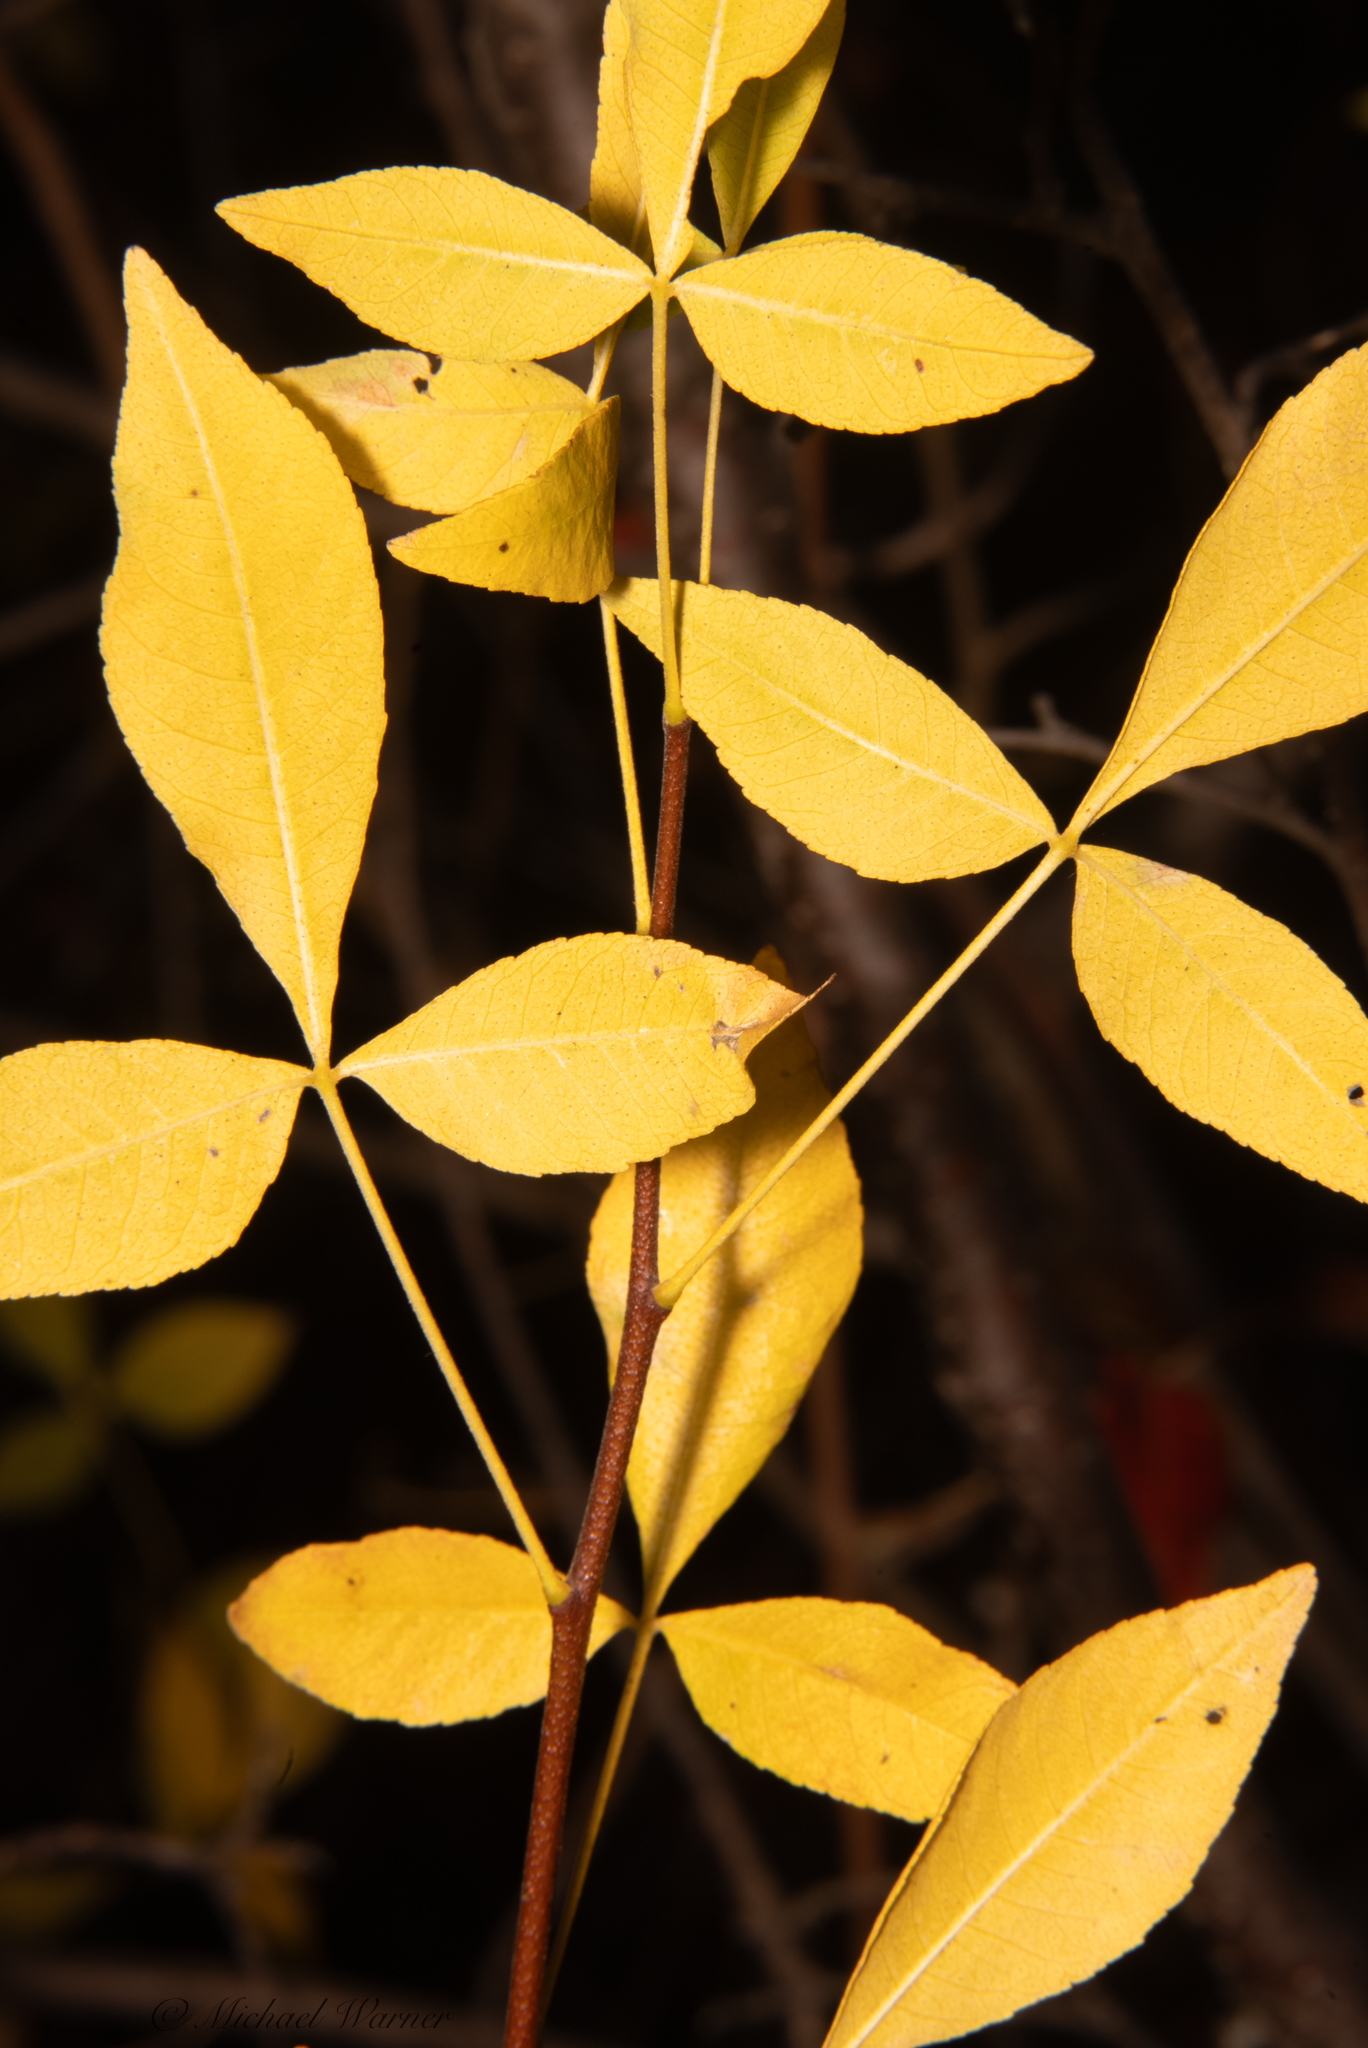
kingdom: Plantae
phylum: Tracheophyta
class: Magnoliopsida
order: Sapindales
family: Rutaceae
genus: Ptelea
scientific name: Ptelea crenulata
